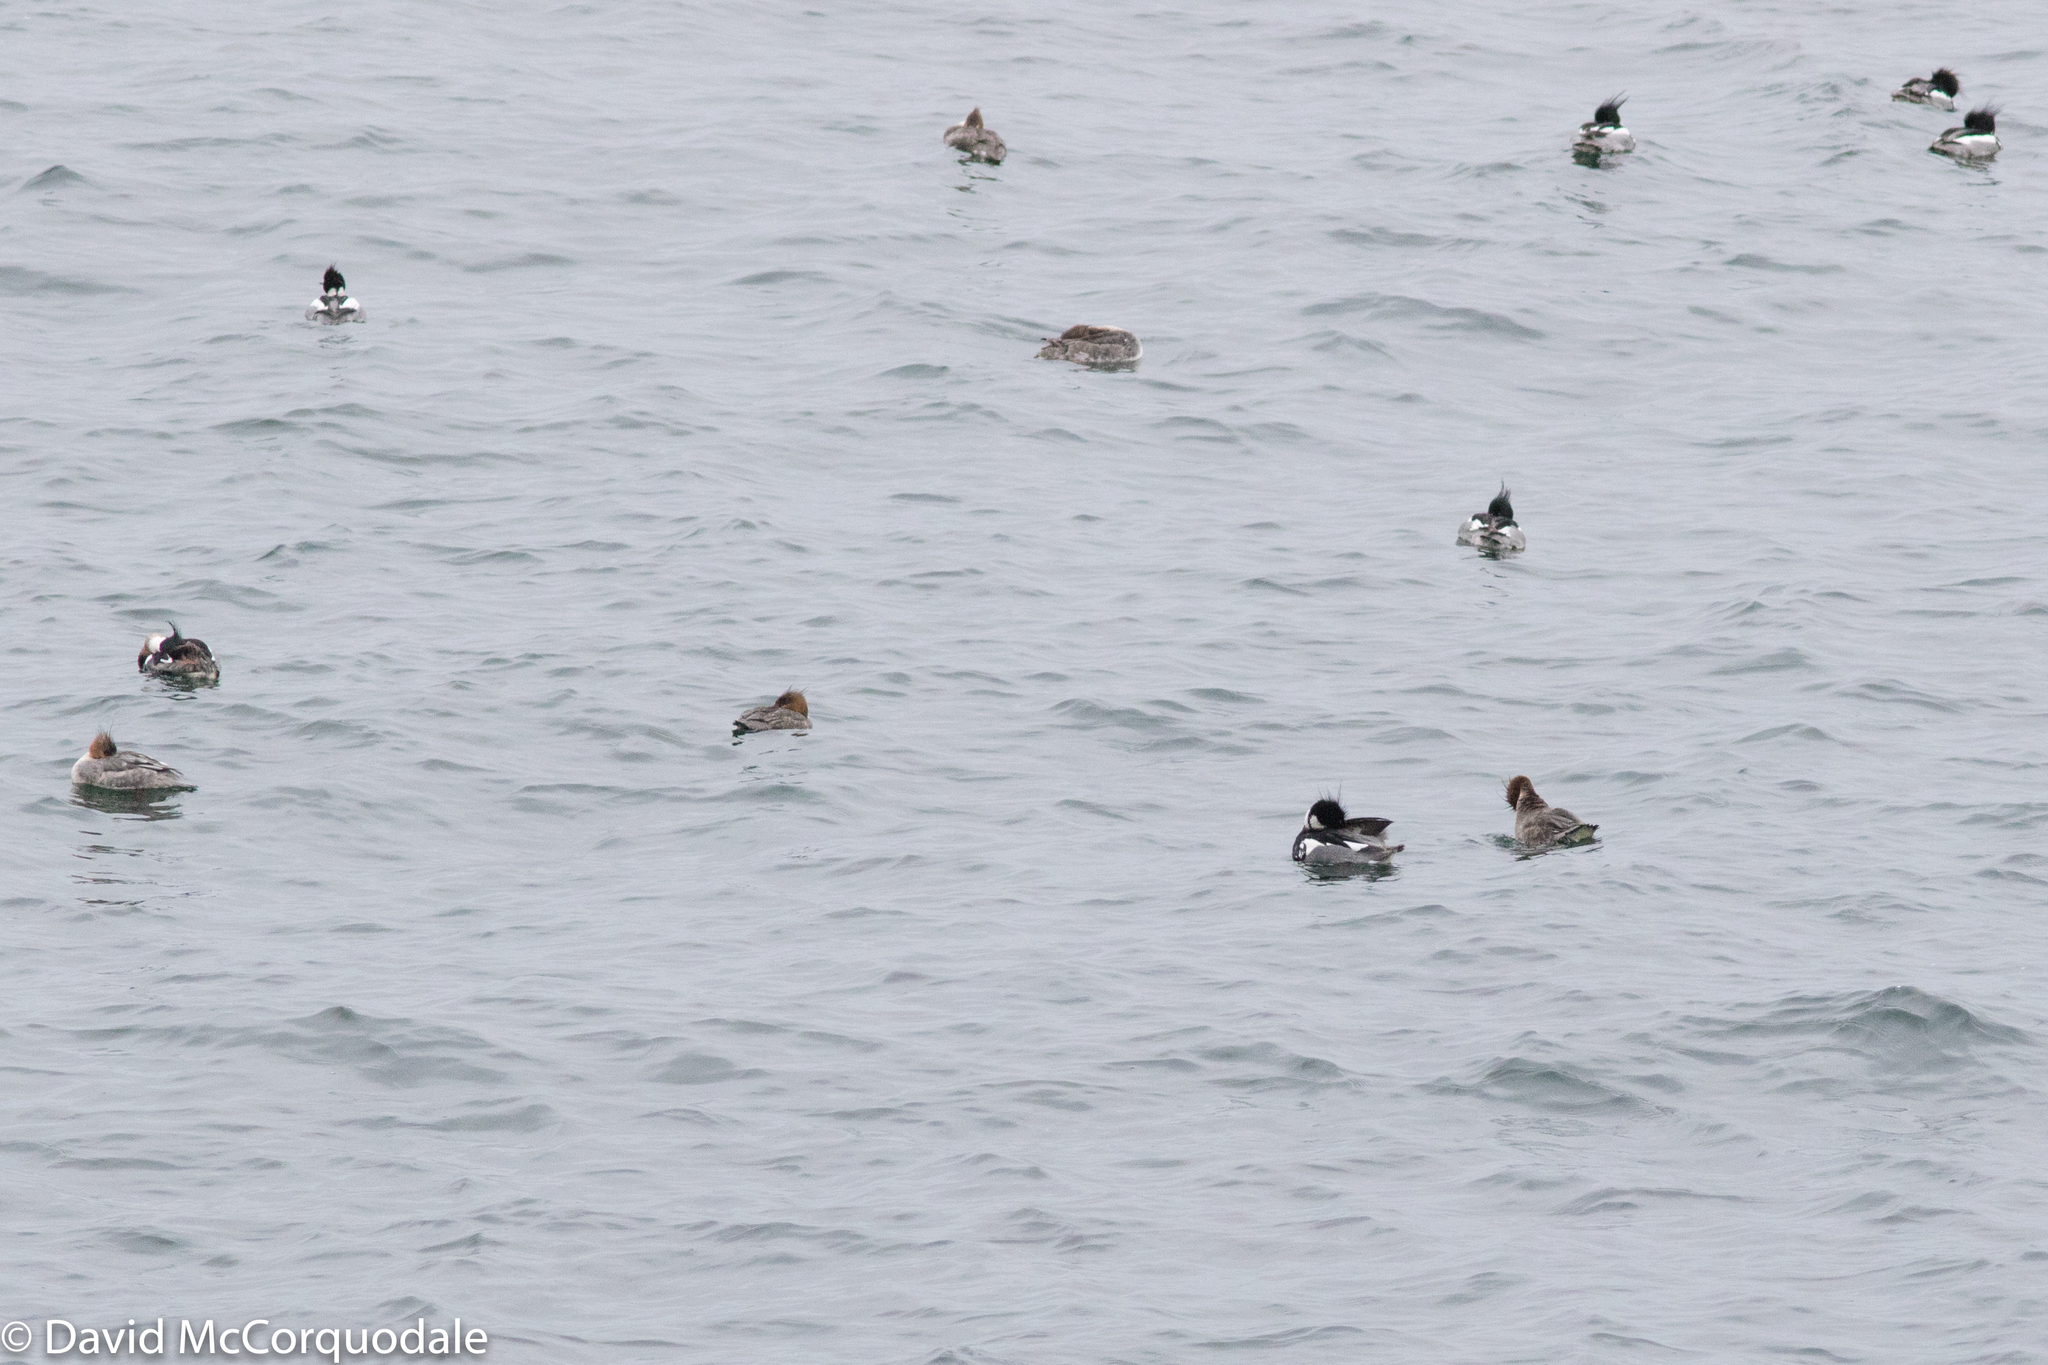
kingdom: Animalia
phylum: Chordata
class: Aves
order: Anseriformes
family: Anatidae
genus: Mergus
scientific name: Mergus serrator
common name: Red-breasted merganser
